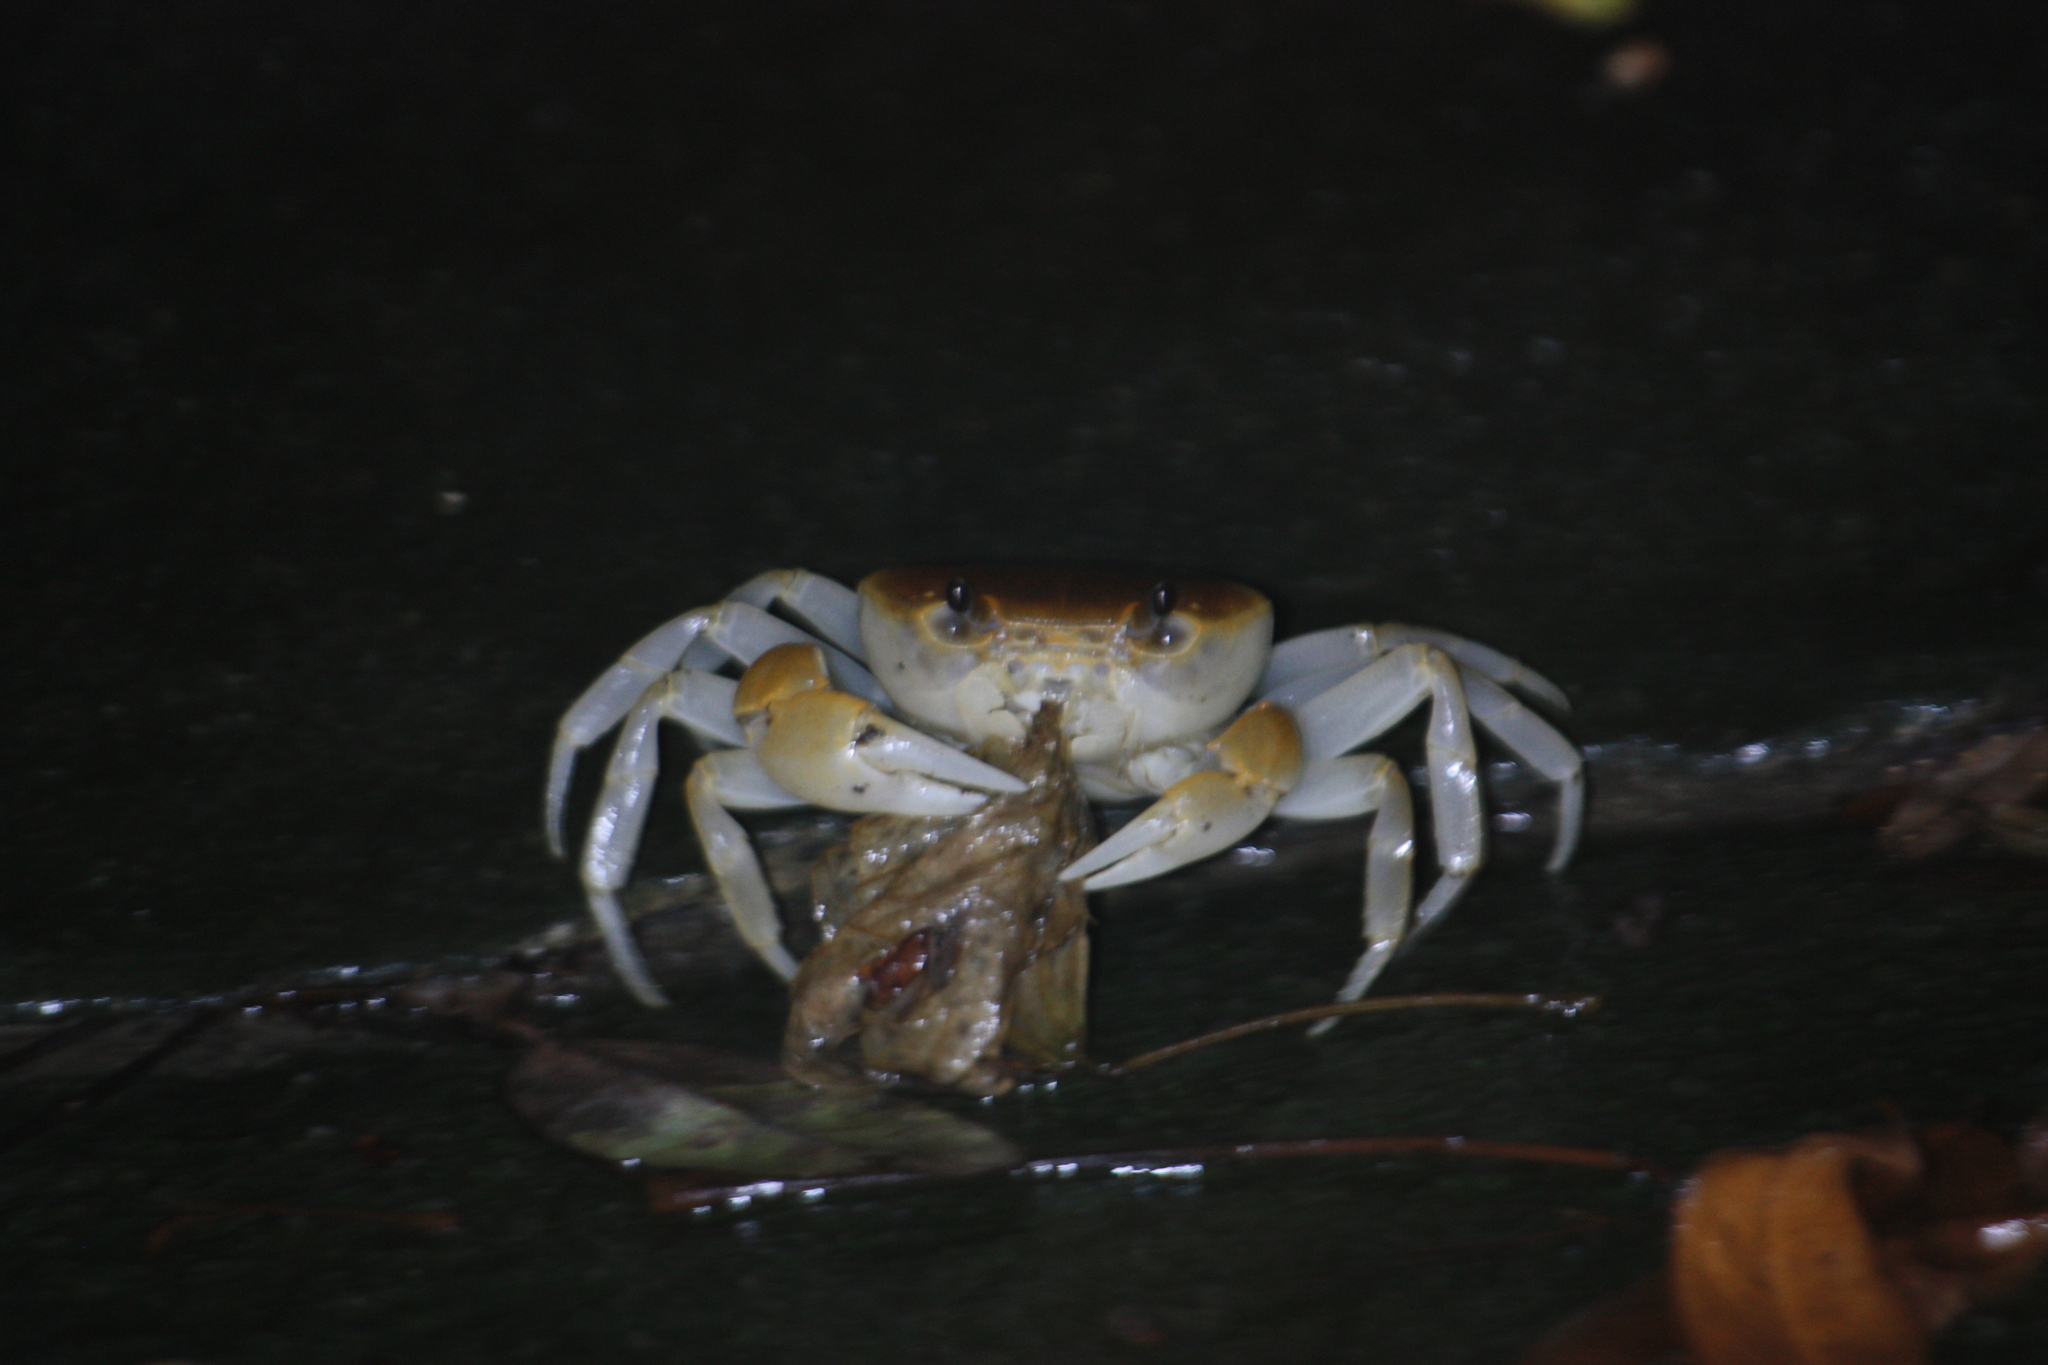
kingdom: Animalia
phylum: Arthropoda
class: Malacostraca
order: Decapoda
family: Potamidae
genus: Geothelphusa
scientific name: Geothelphusa makatao
